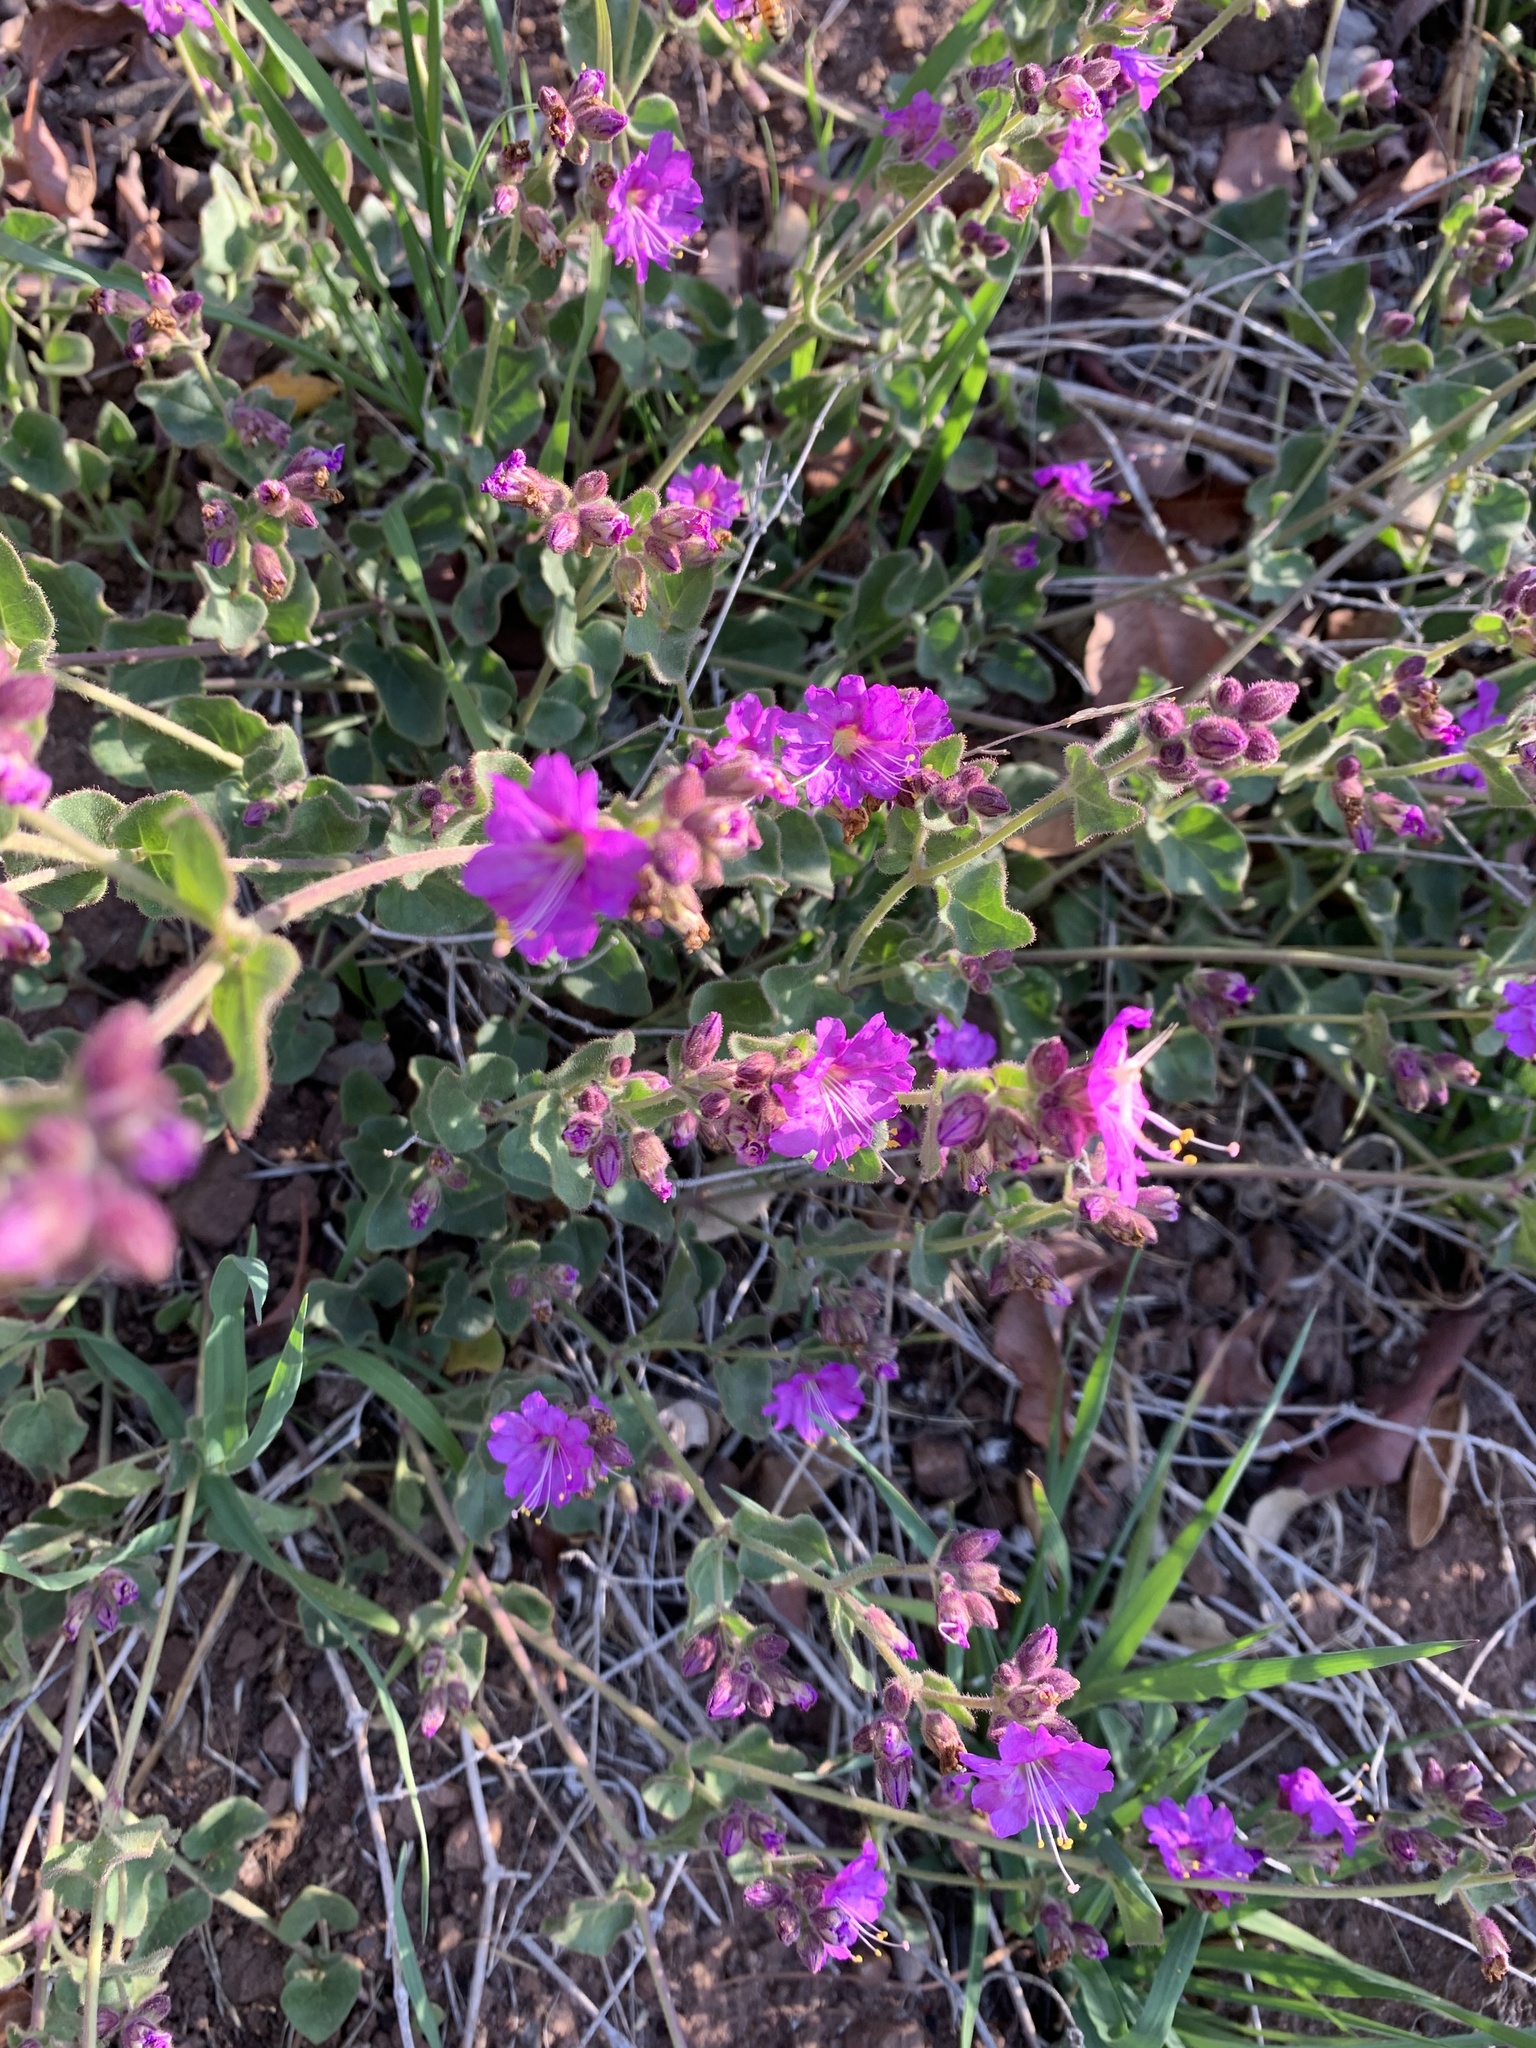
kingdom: Plantae
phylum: Tracheophyta
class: Magnoliopsida
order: Caryophyllales
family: Nyctaginaceae
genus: Mirabilis
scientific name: Mirabilis laevis
